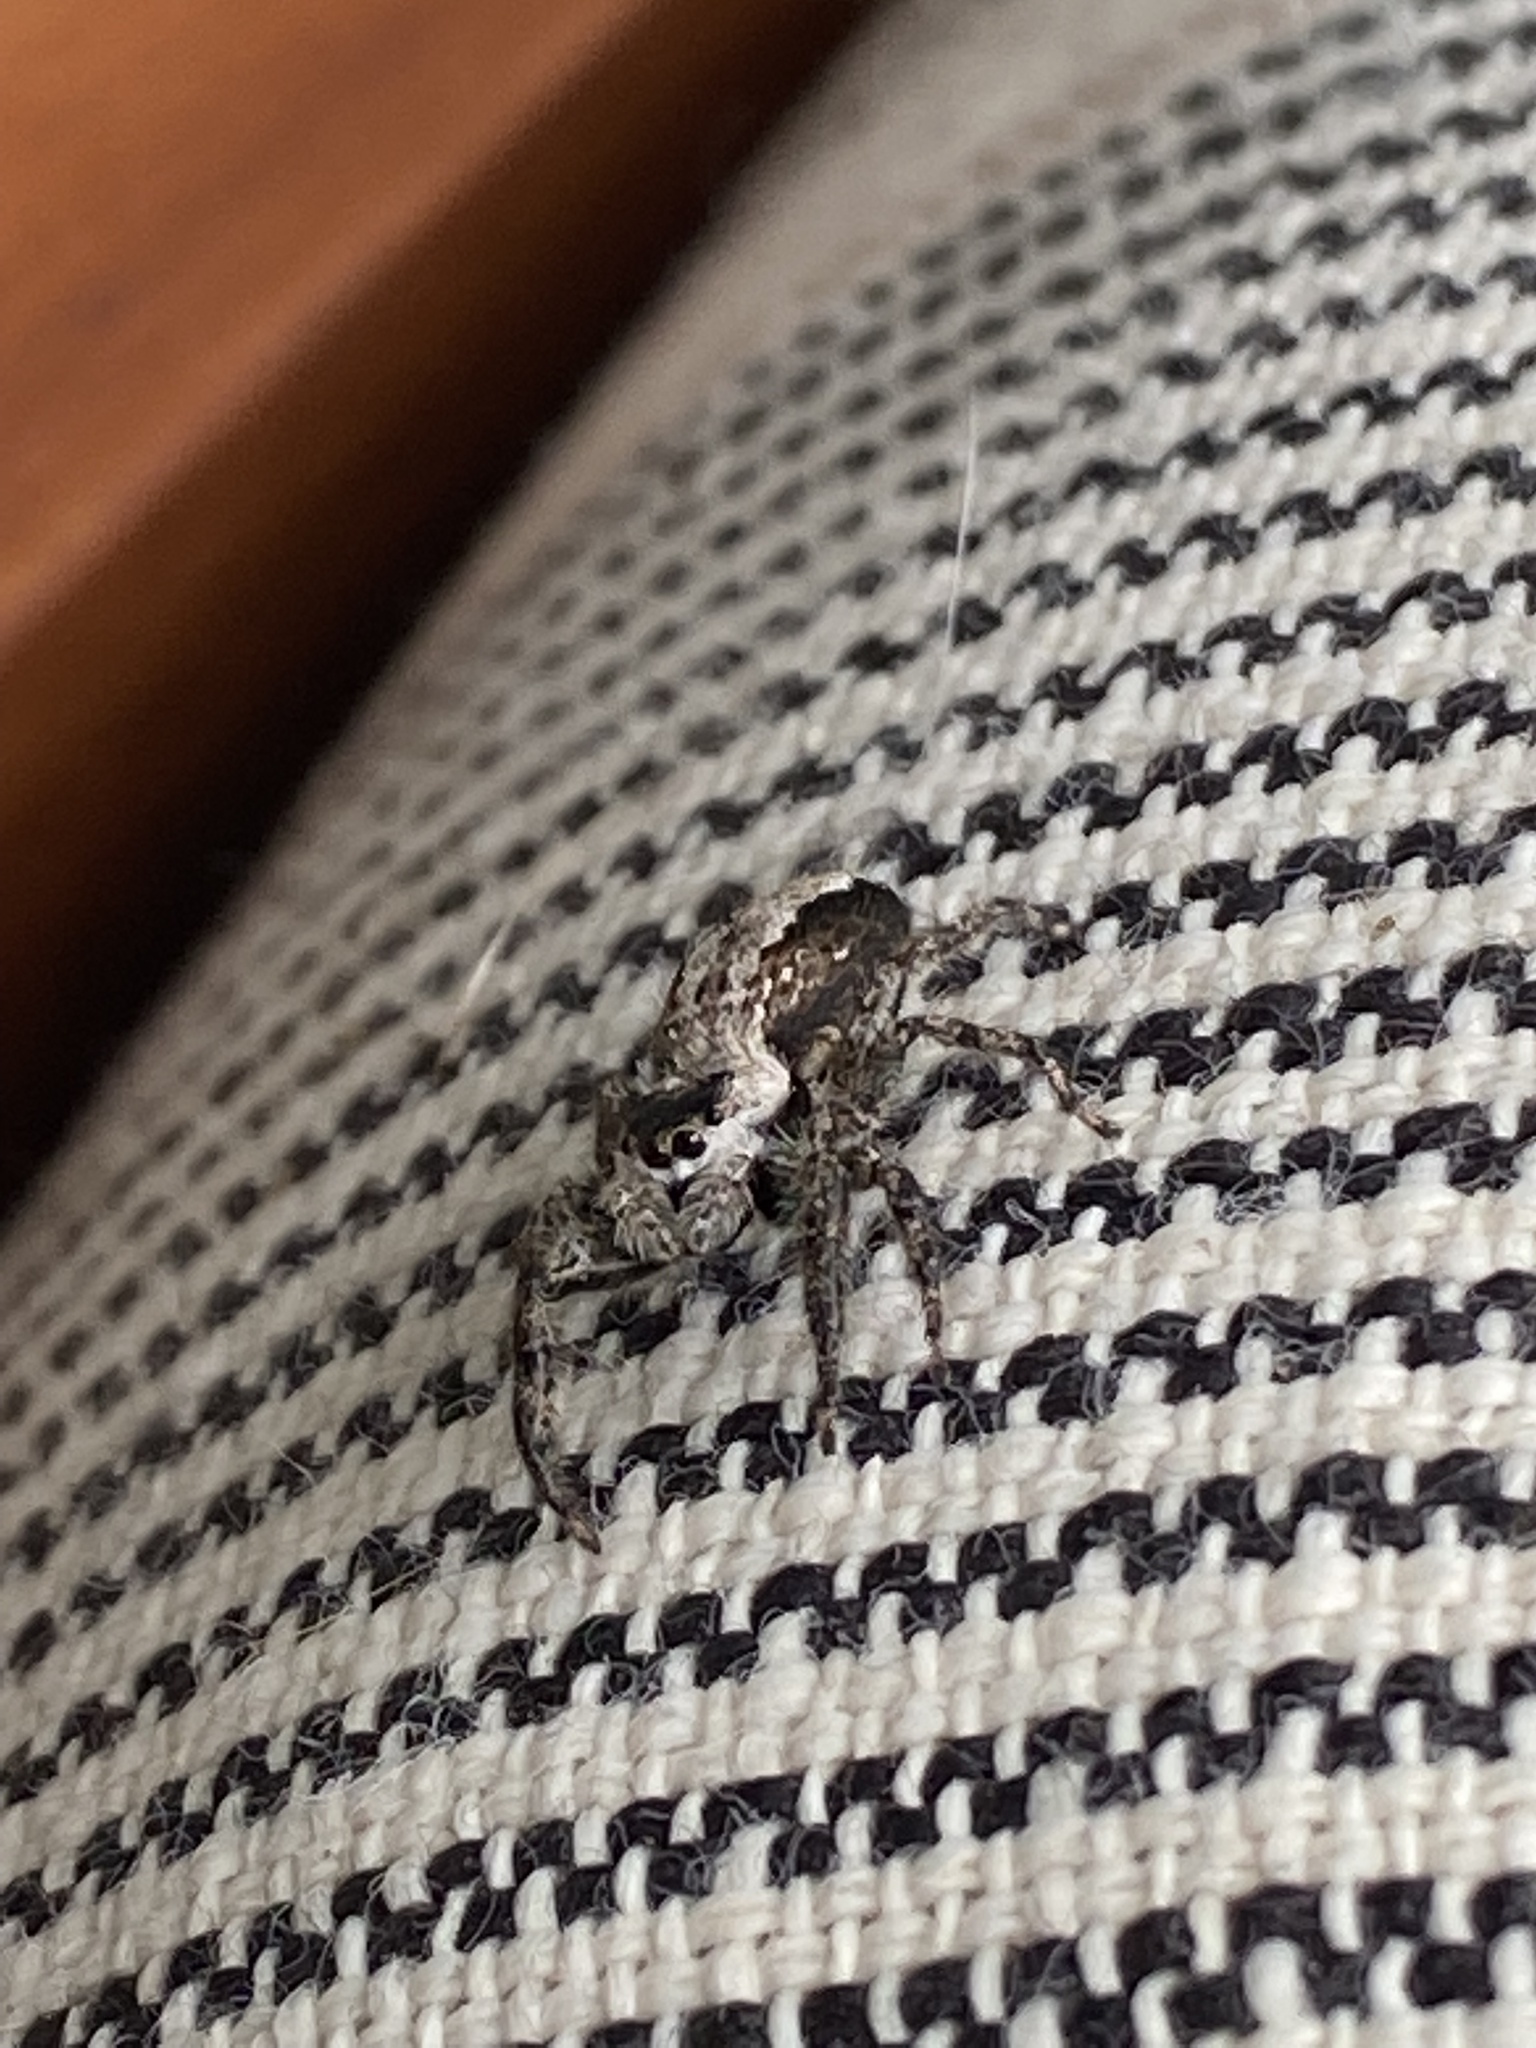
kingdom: Animalia
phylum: Arthropoda
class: Arachnida
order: Araneae
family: Salticidae
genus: Platycryptus
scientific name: Platycryptus undatus
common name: Tan jumping spider
